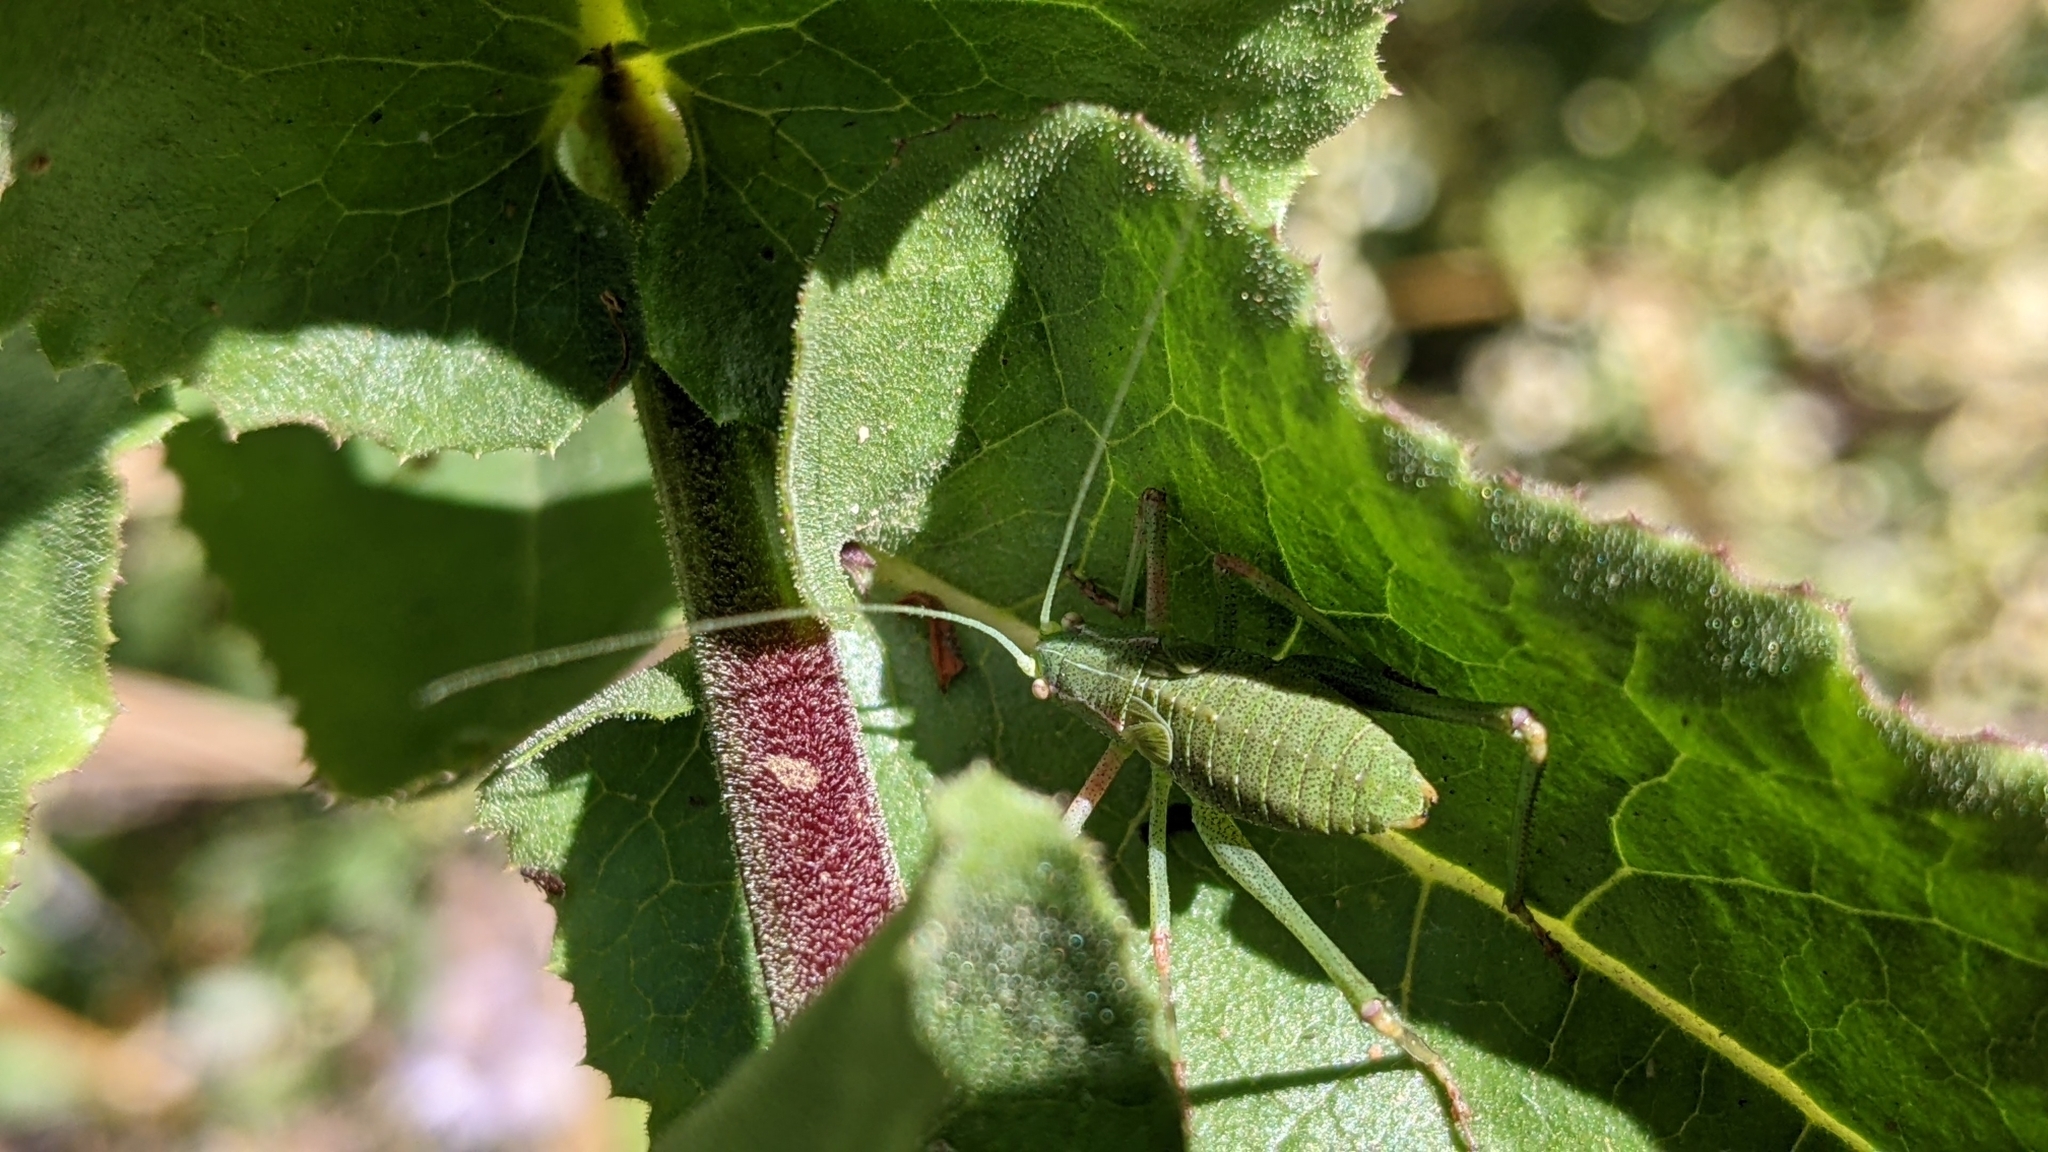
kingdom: Animalia
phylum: Arthropoda
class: Insecta
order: Orthoptera
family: Tettigoniidae
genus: Platylyra
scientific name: Platylyra californica
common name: Chaparral false katydid
